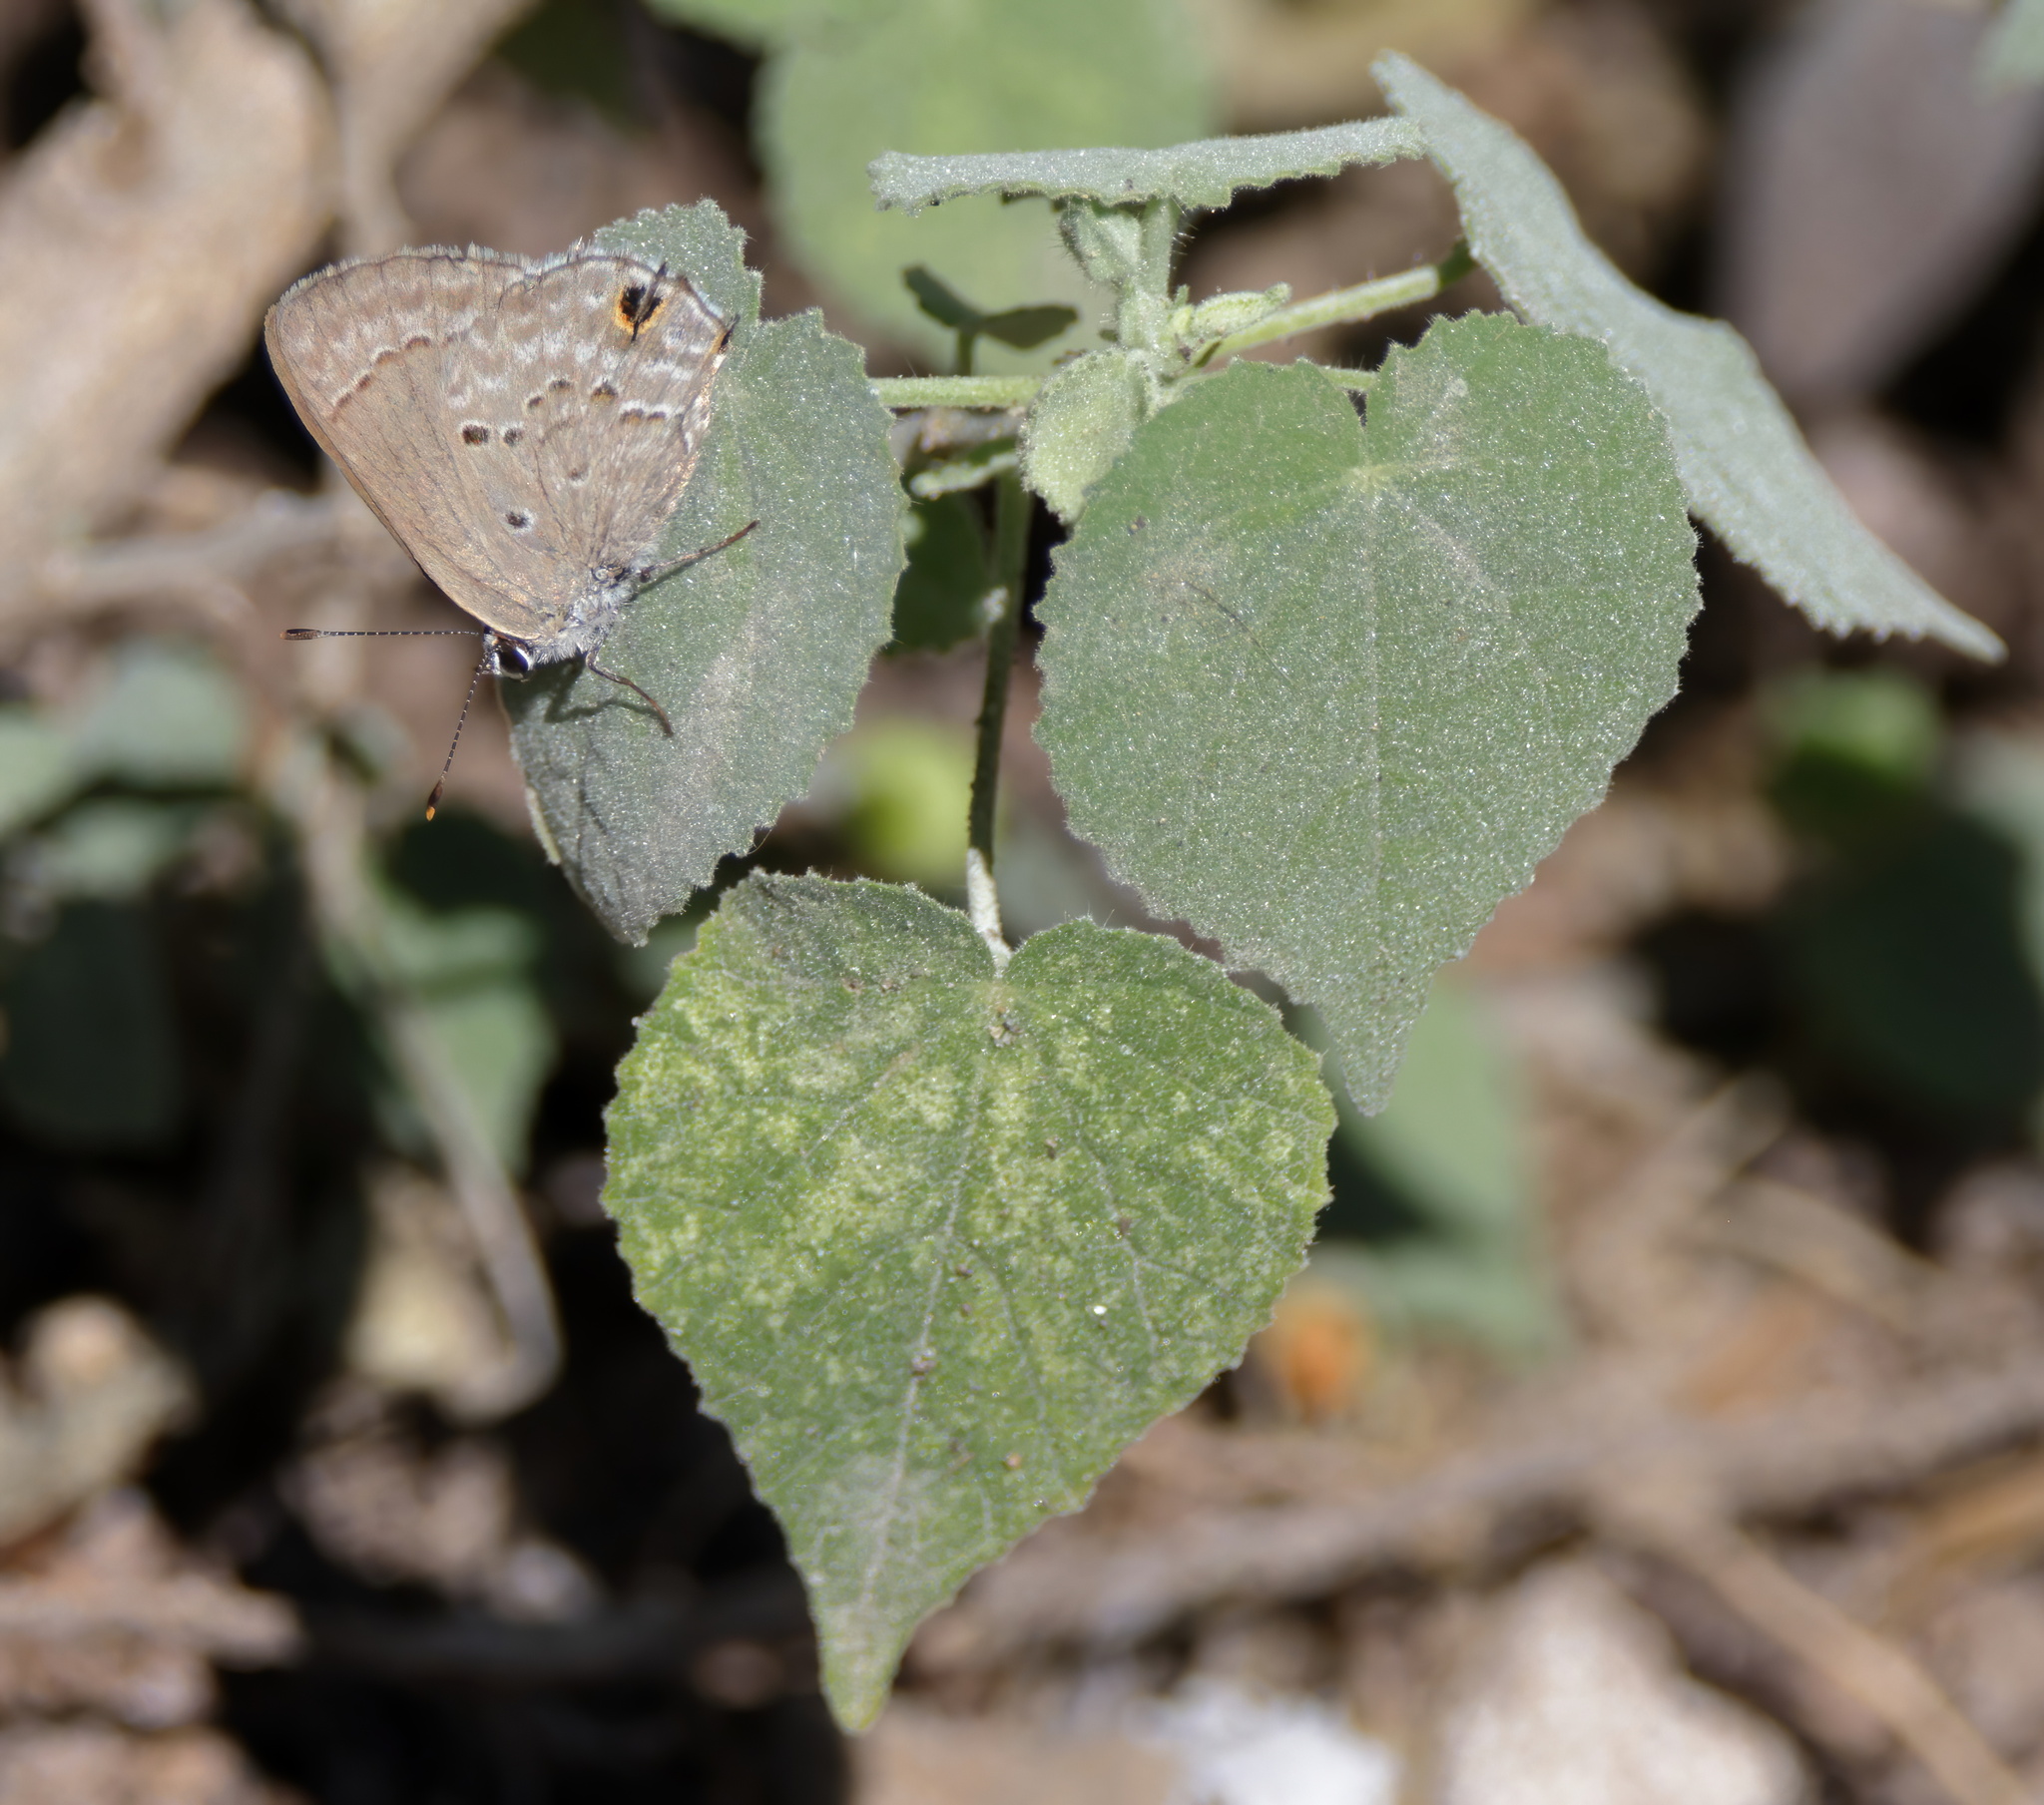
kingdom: Animalia
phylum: Arthropoda
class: Insecta
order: Lepidoptera
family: Lycaenidae
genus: Callicista
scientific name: Callicista columella
